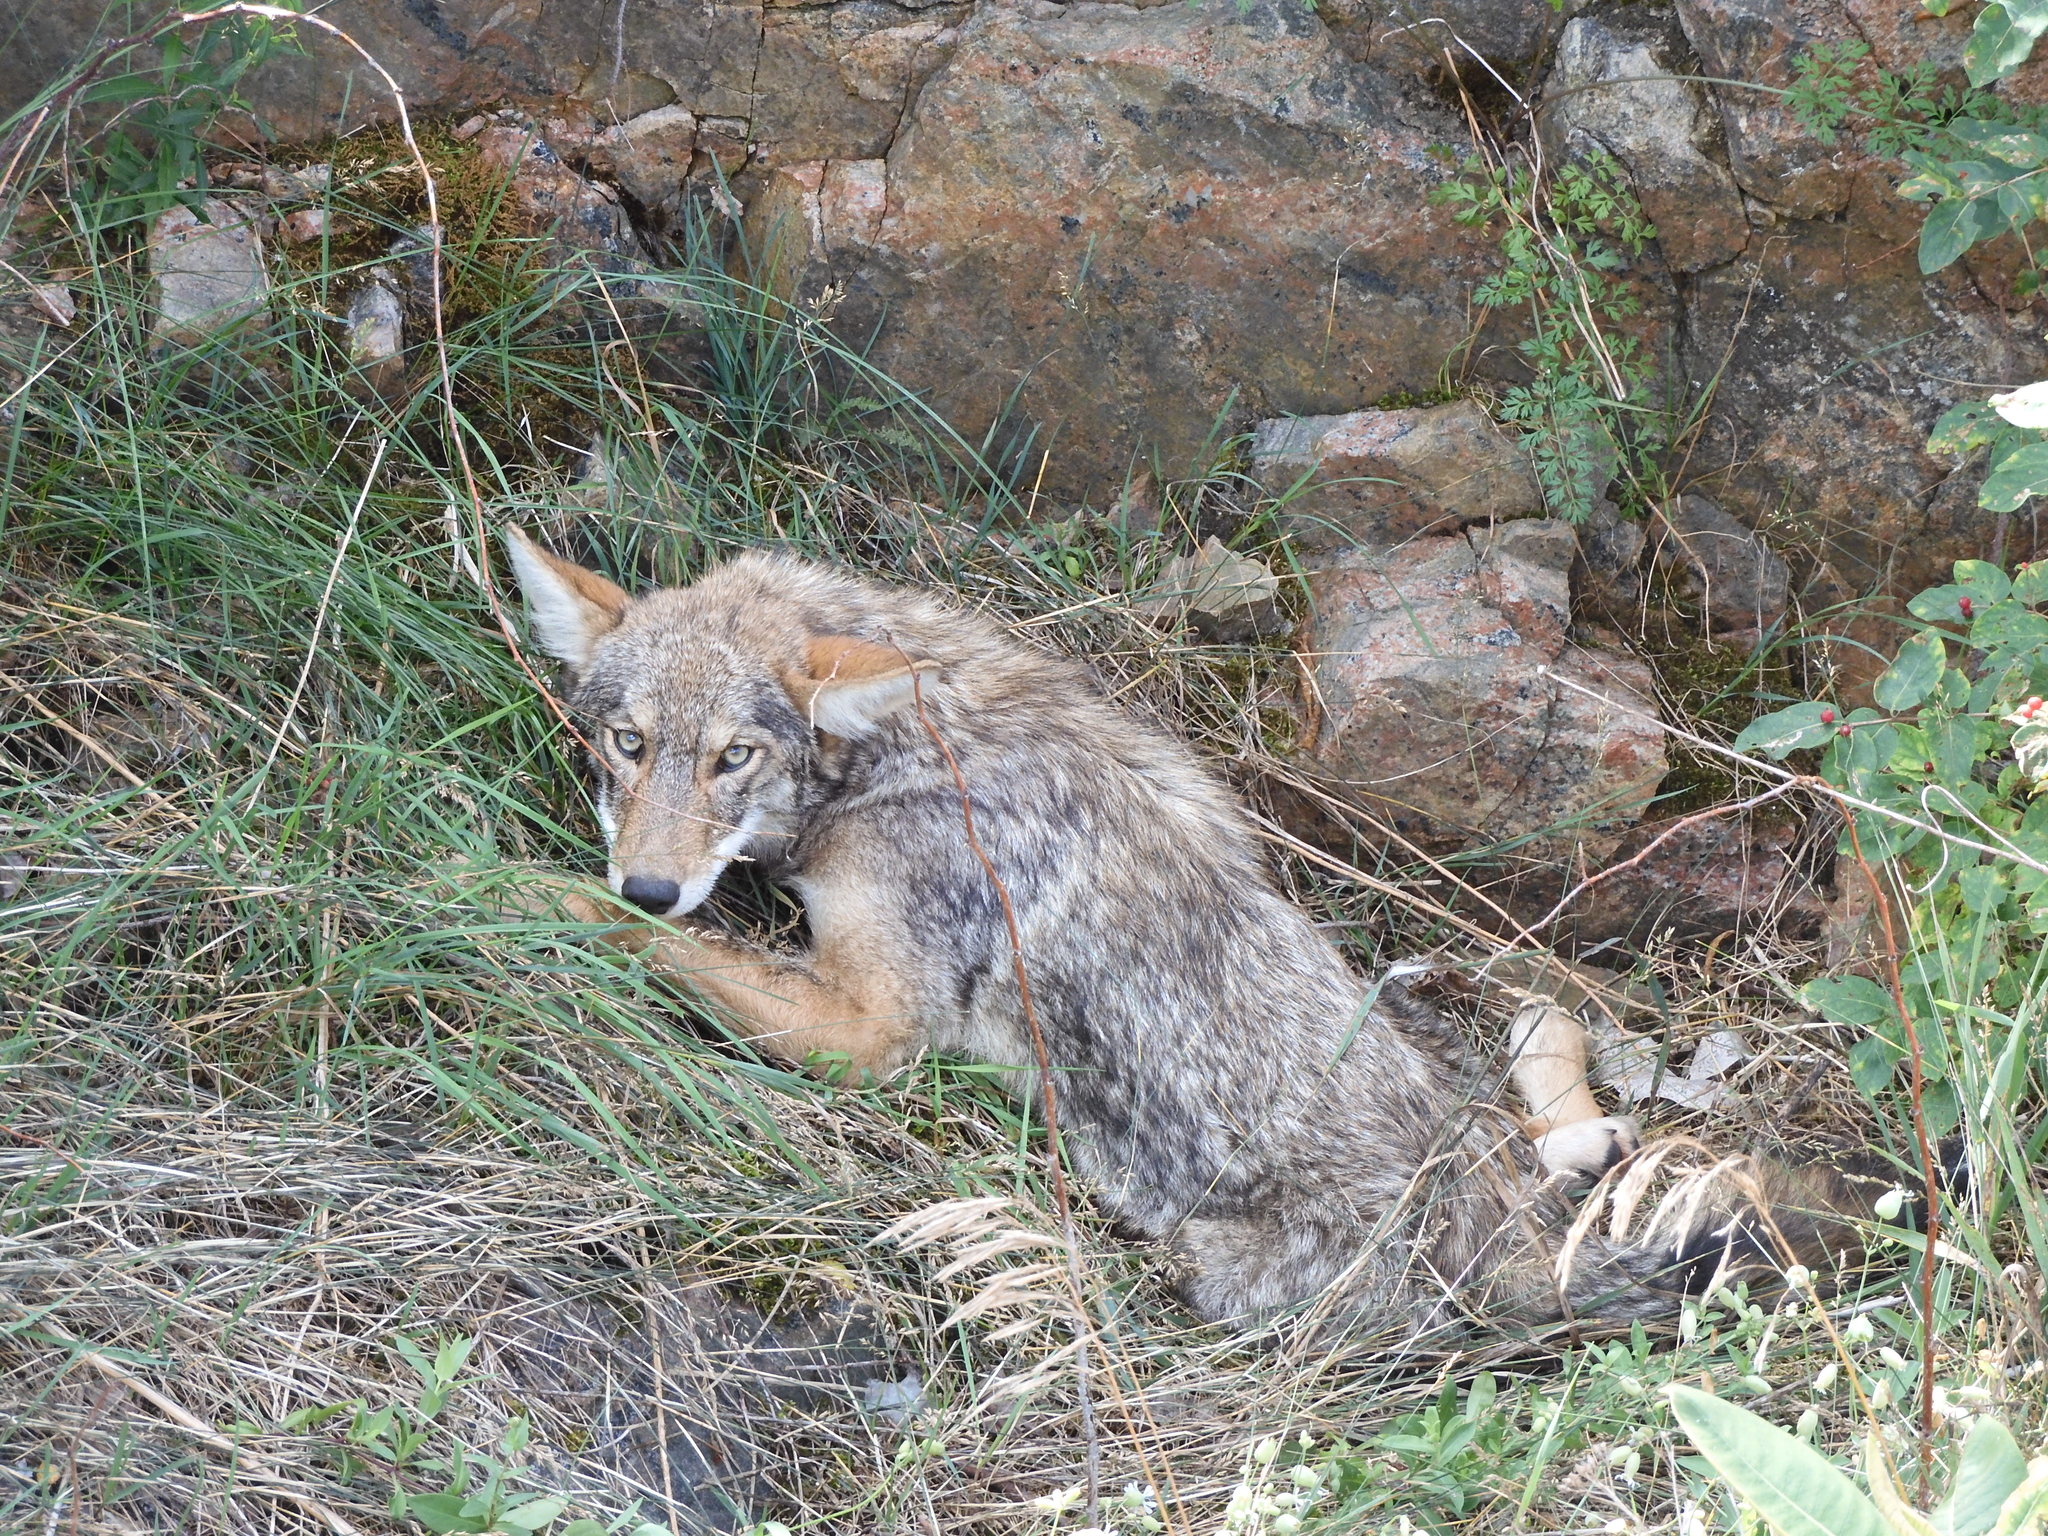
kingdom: Animalia
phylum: Chordata
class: Mammalia
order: Carnivora
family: Canidae
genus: Canis
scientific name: Canis latrans
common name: Coyote
